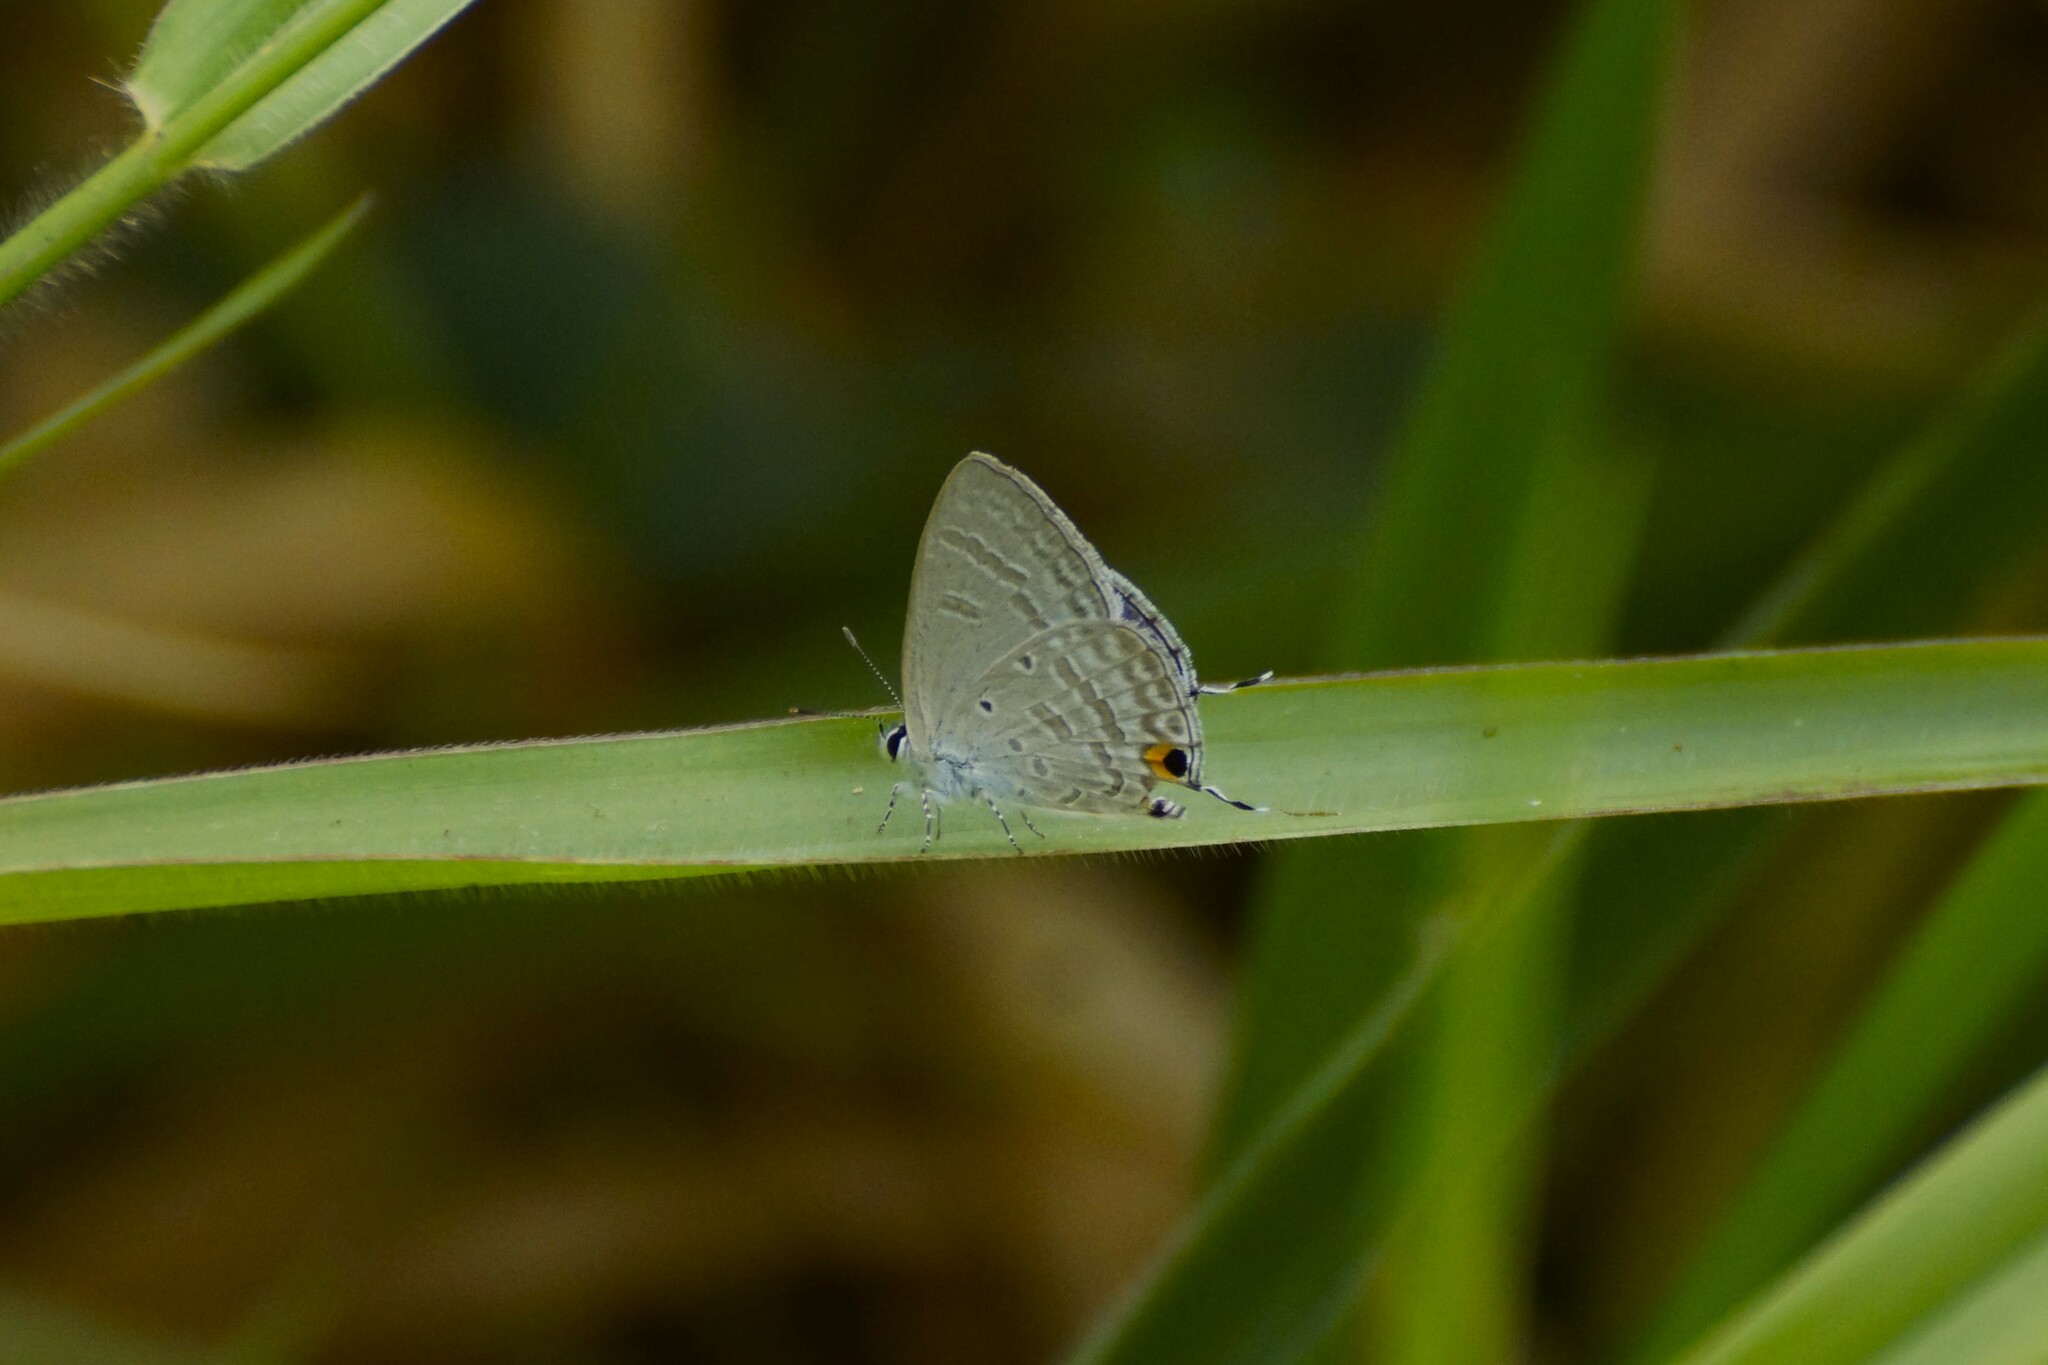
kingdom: Animalia
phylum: Arthropoda
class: Insecta
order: Lepidoptera
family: Lycaenidae
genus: Catochrysops
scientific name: Catochrysops panormus
